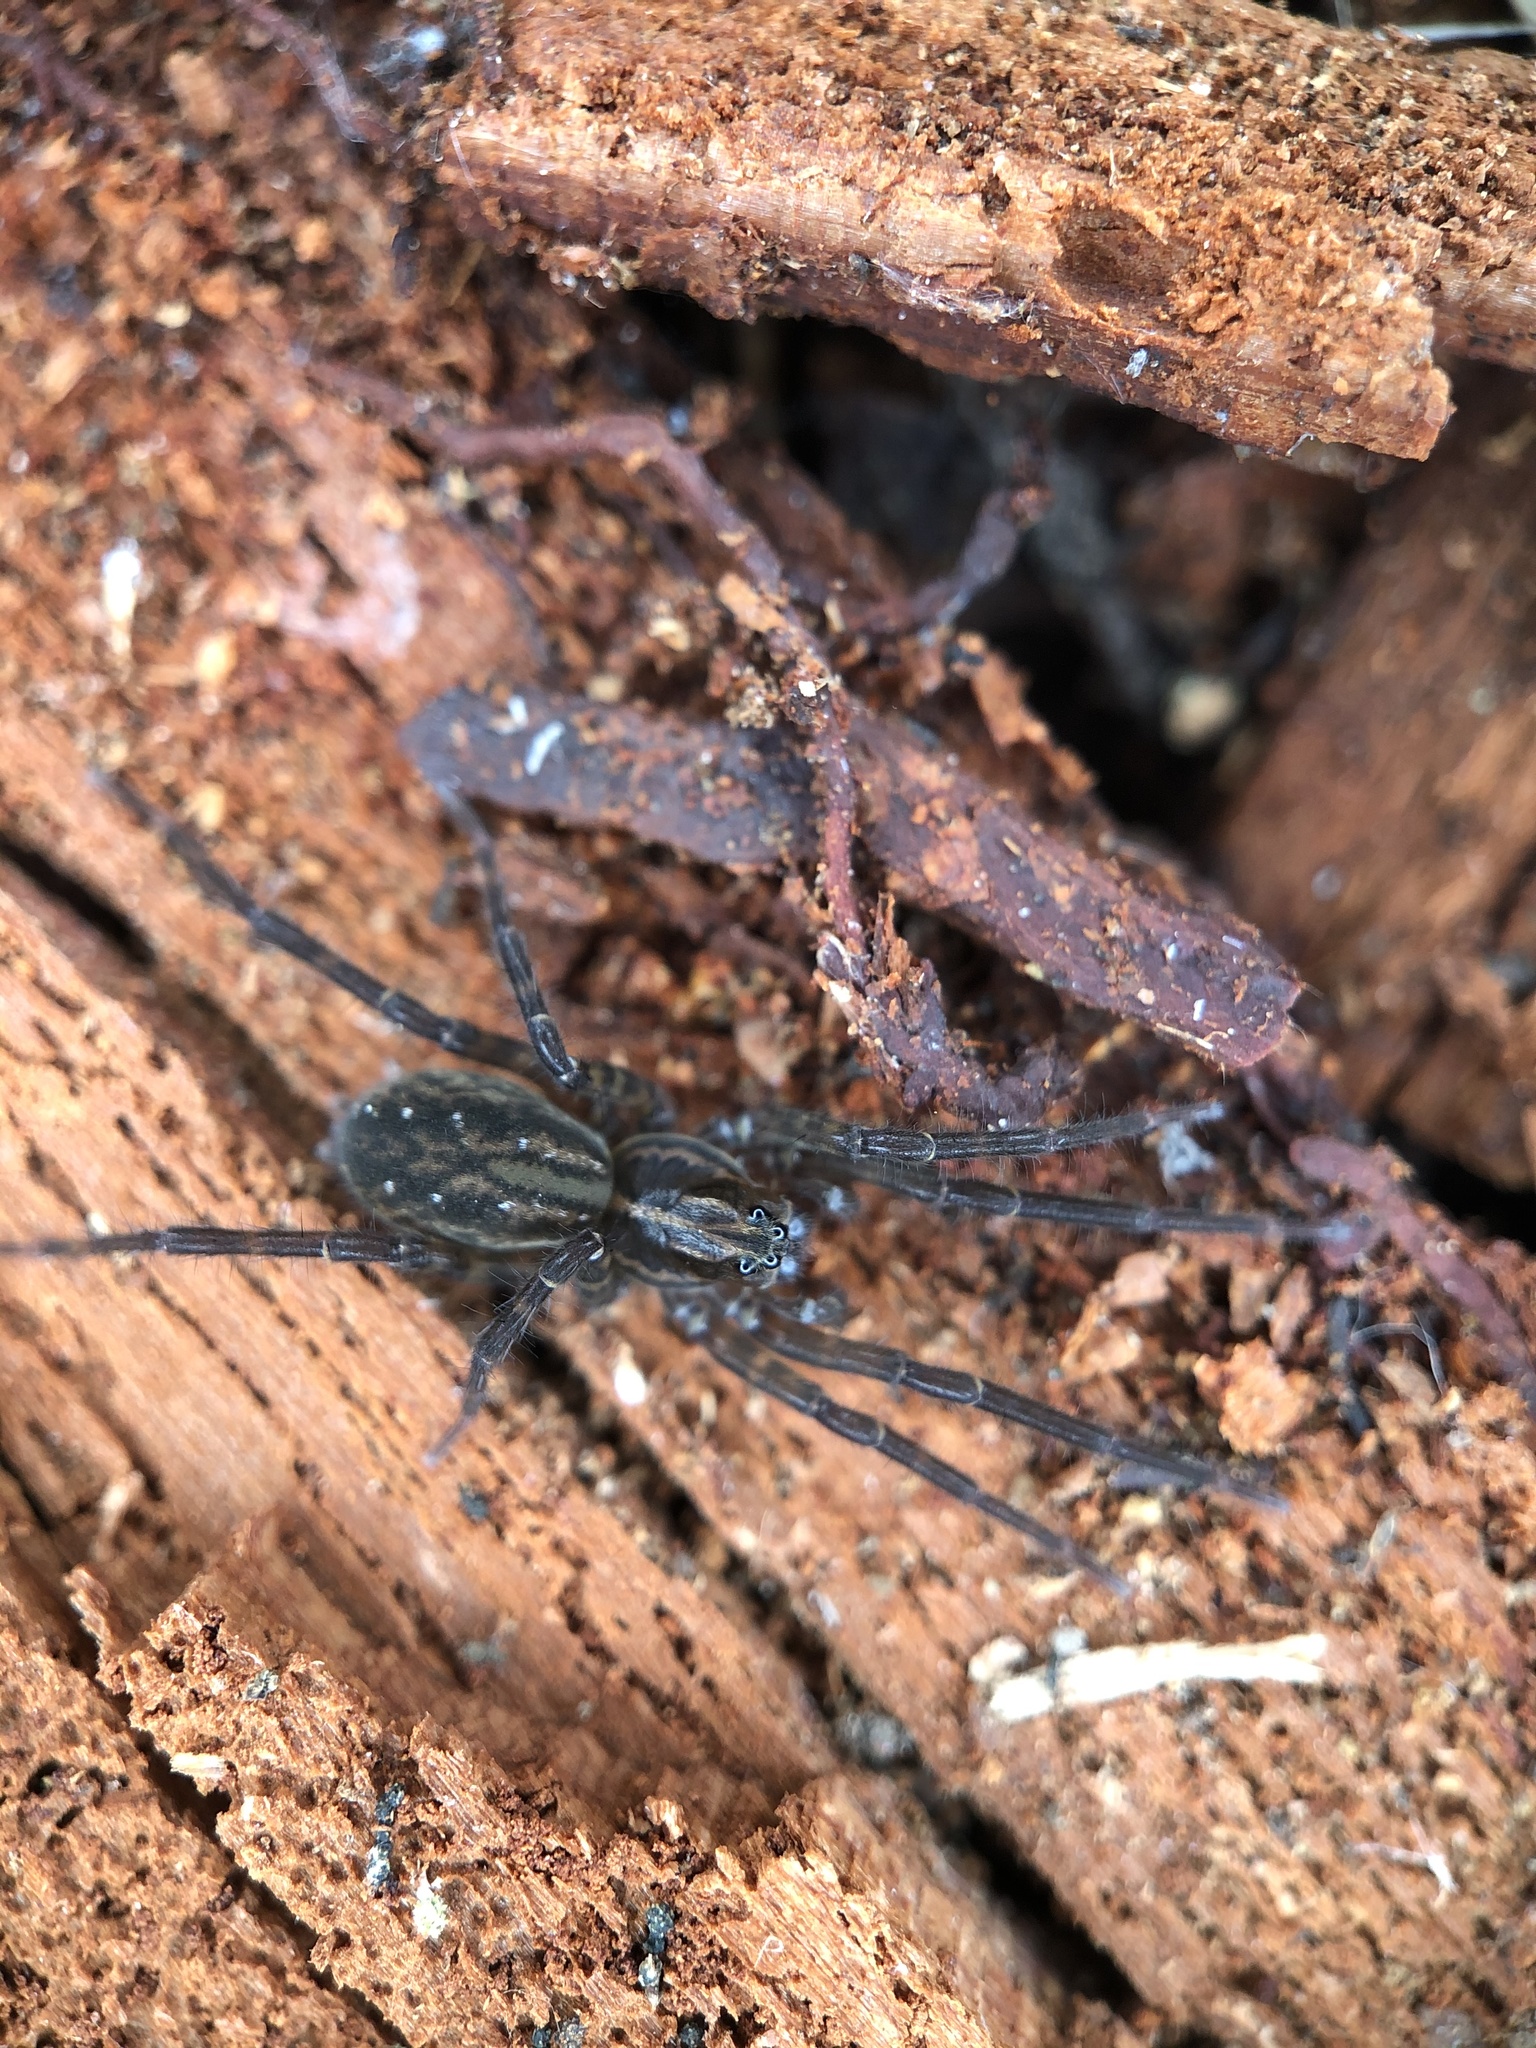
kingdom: Animalia
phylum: Arthropoda
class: Arachnida
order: Araneae
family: Lycosidae
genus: Allotrochosina
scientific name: Allotrochosina schauinslandi
